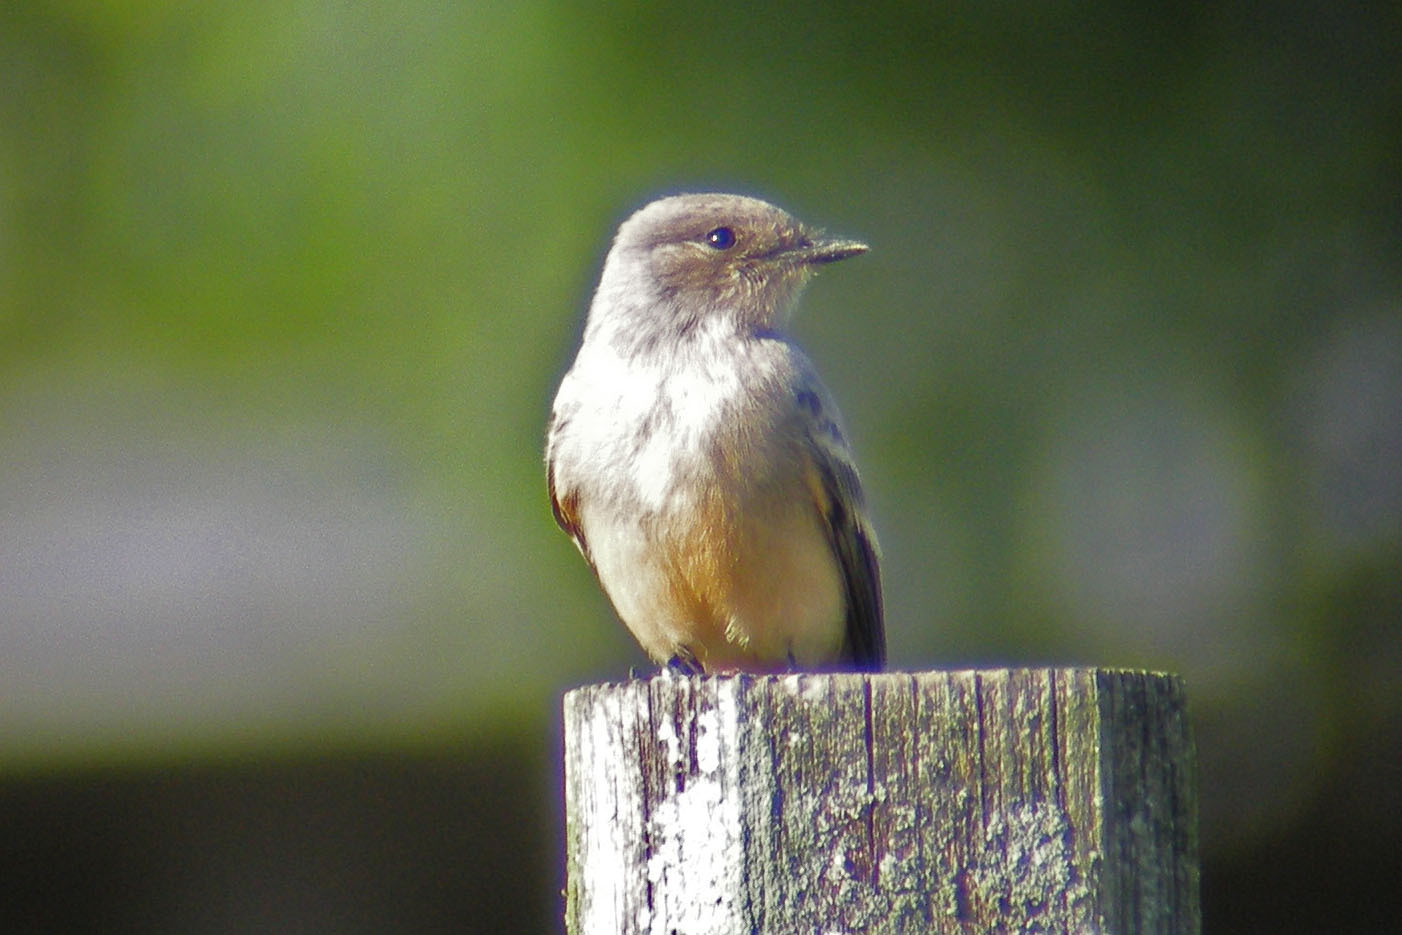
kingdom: Animalia
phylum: Chordata
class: Aves
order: Passeriformes
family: Tyrannidae
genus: Sayornis
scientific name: Sayornis saya
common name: Say's phoebe
